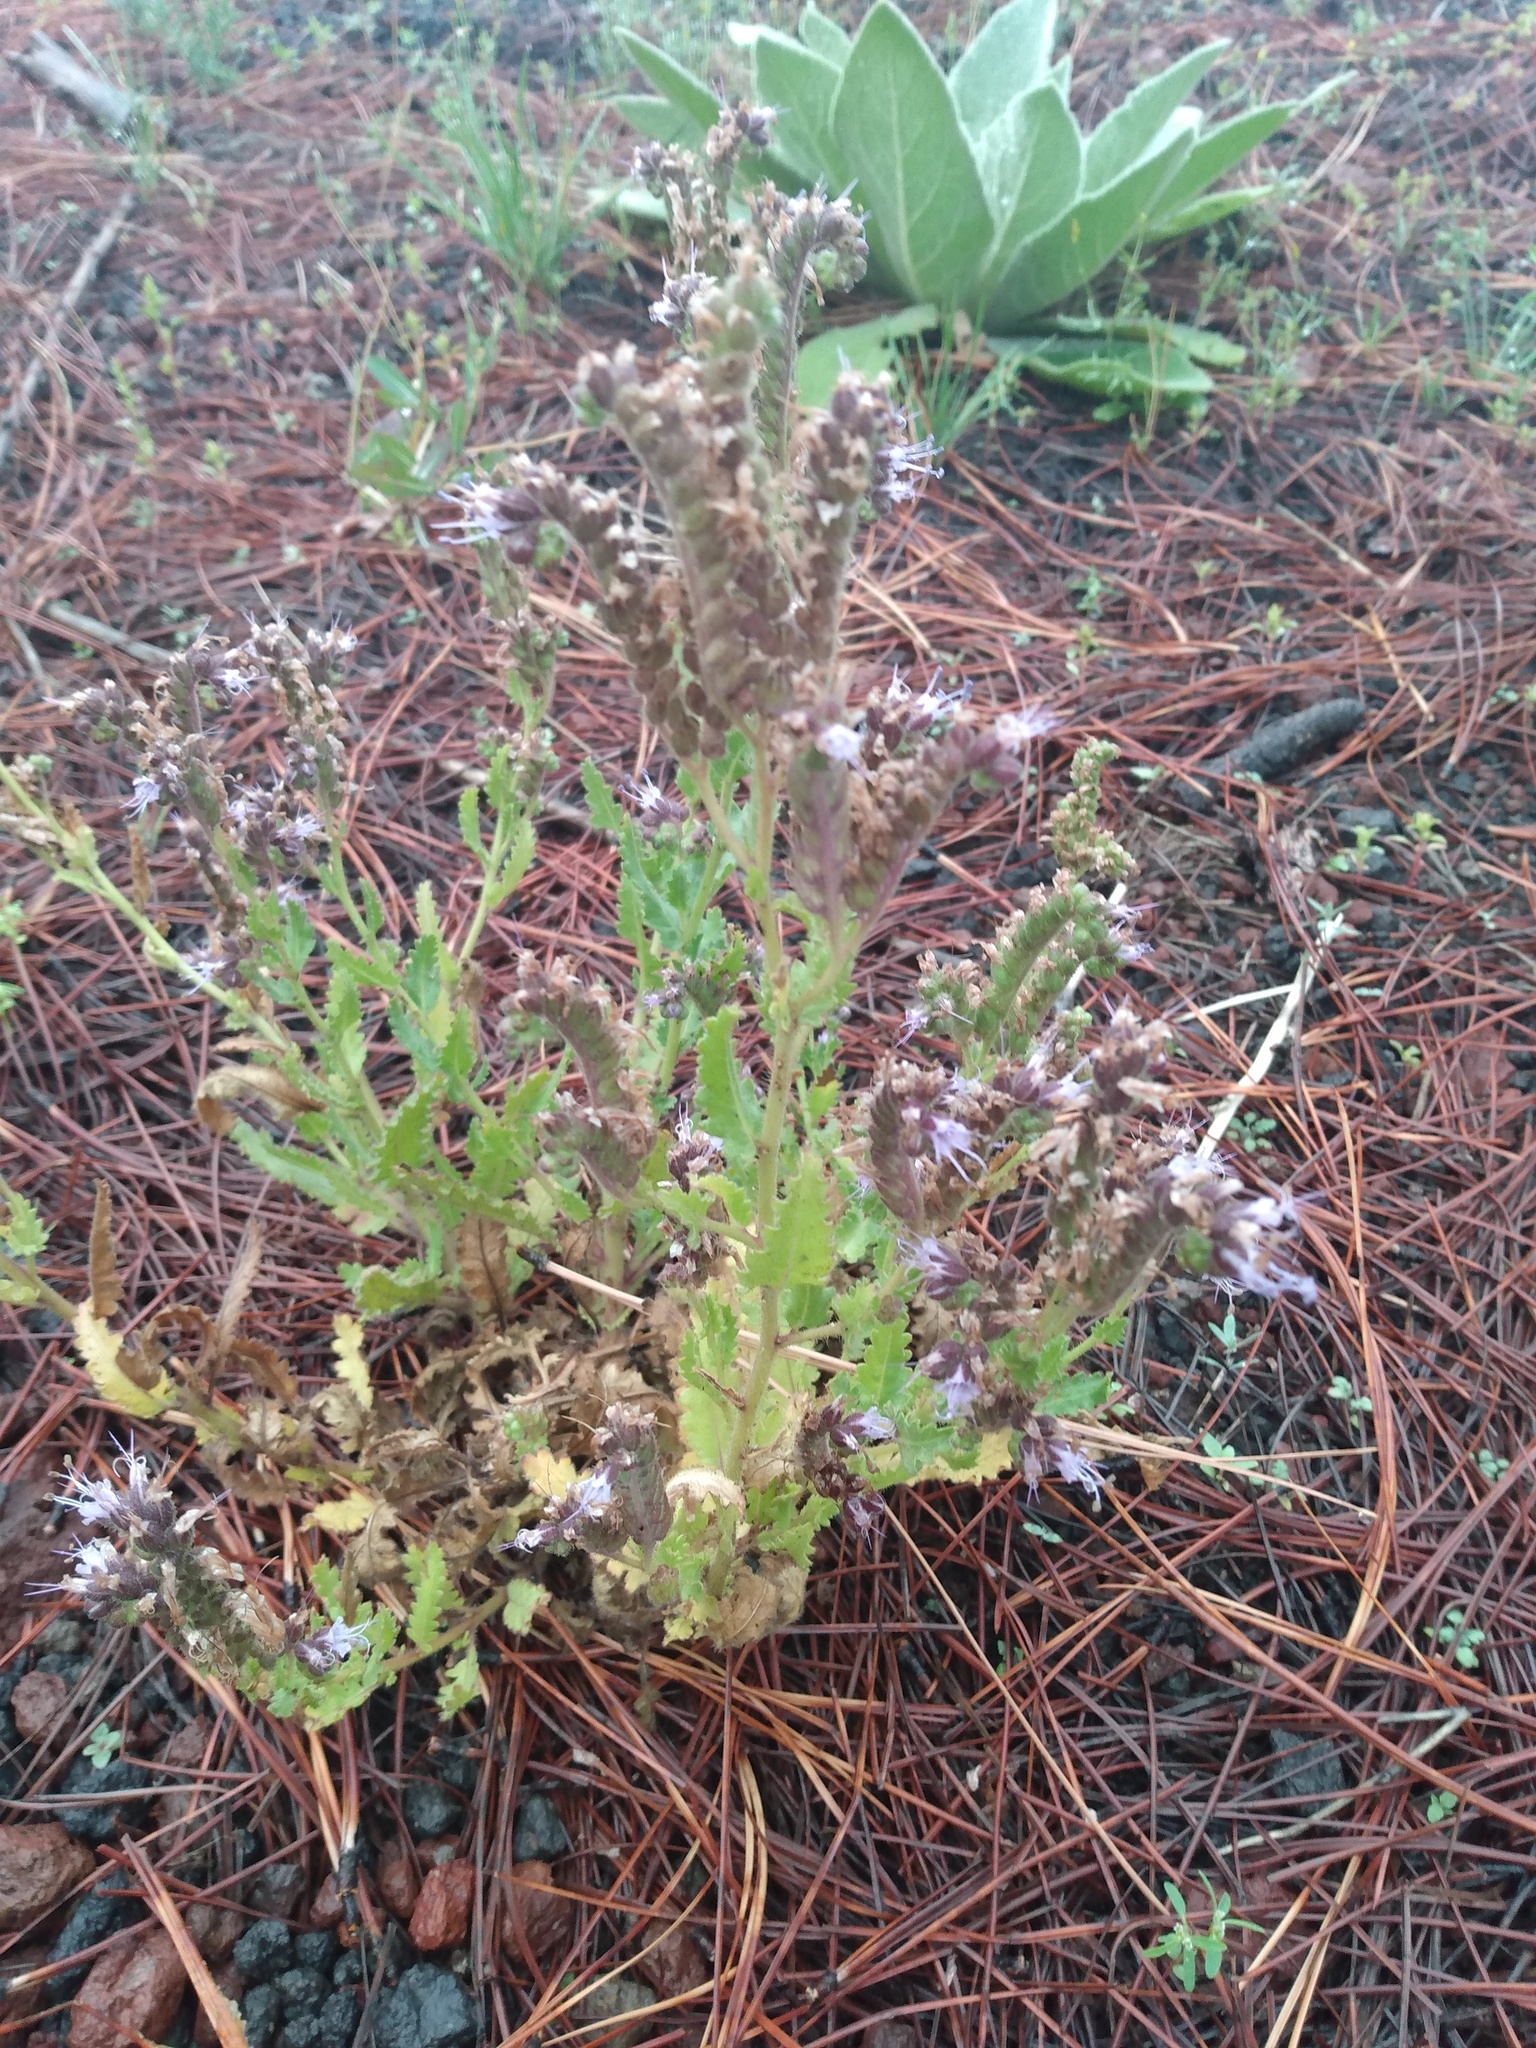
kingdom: Plantae
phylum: Tracheophyta
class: Magnoliopsida
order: Boraginales
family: Hydrophyllaceae
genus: Phacelia
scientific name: Phacelia serrata
